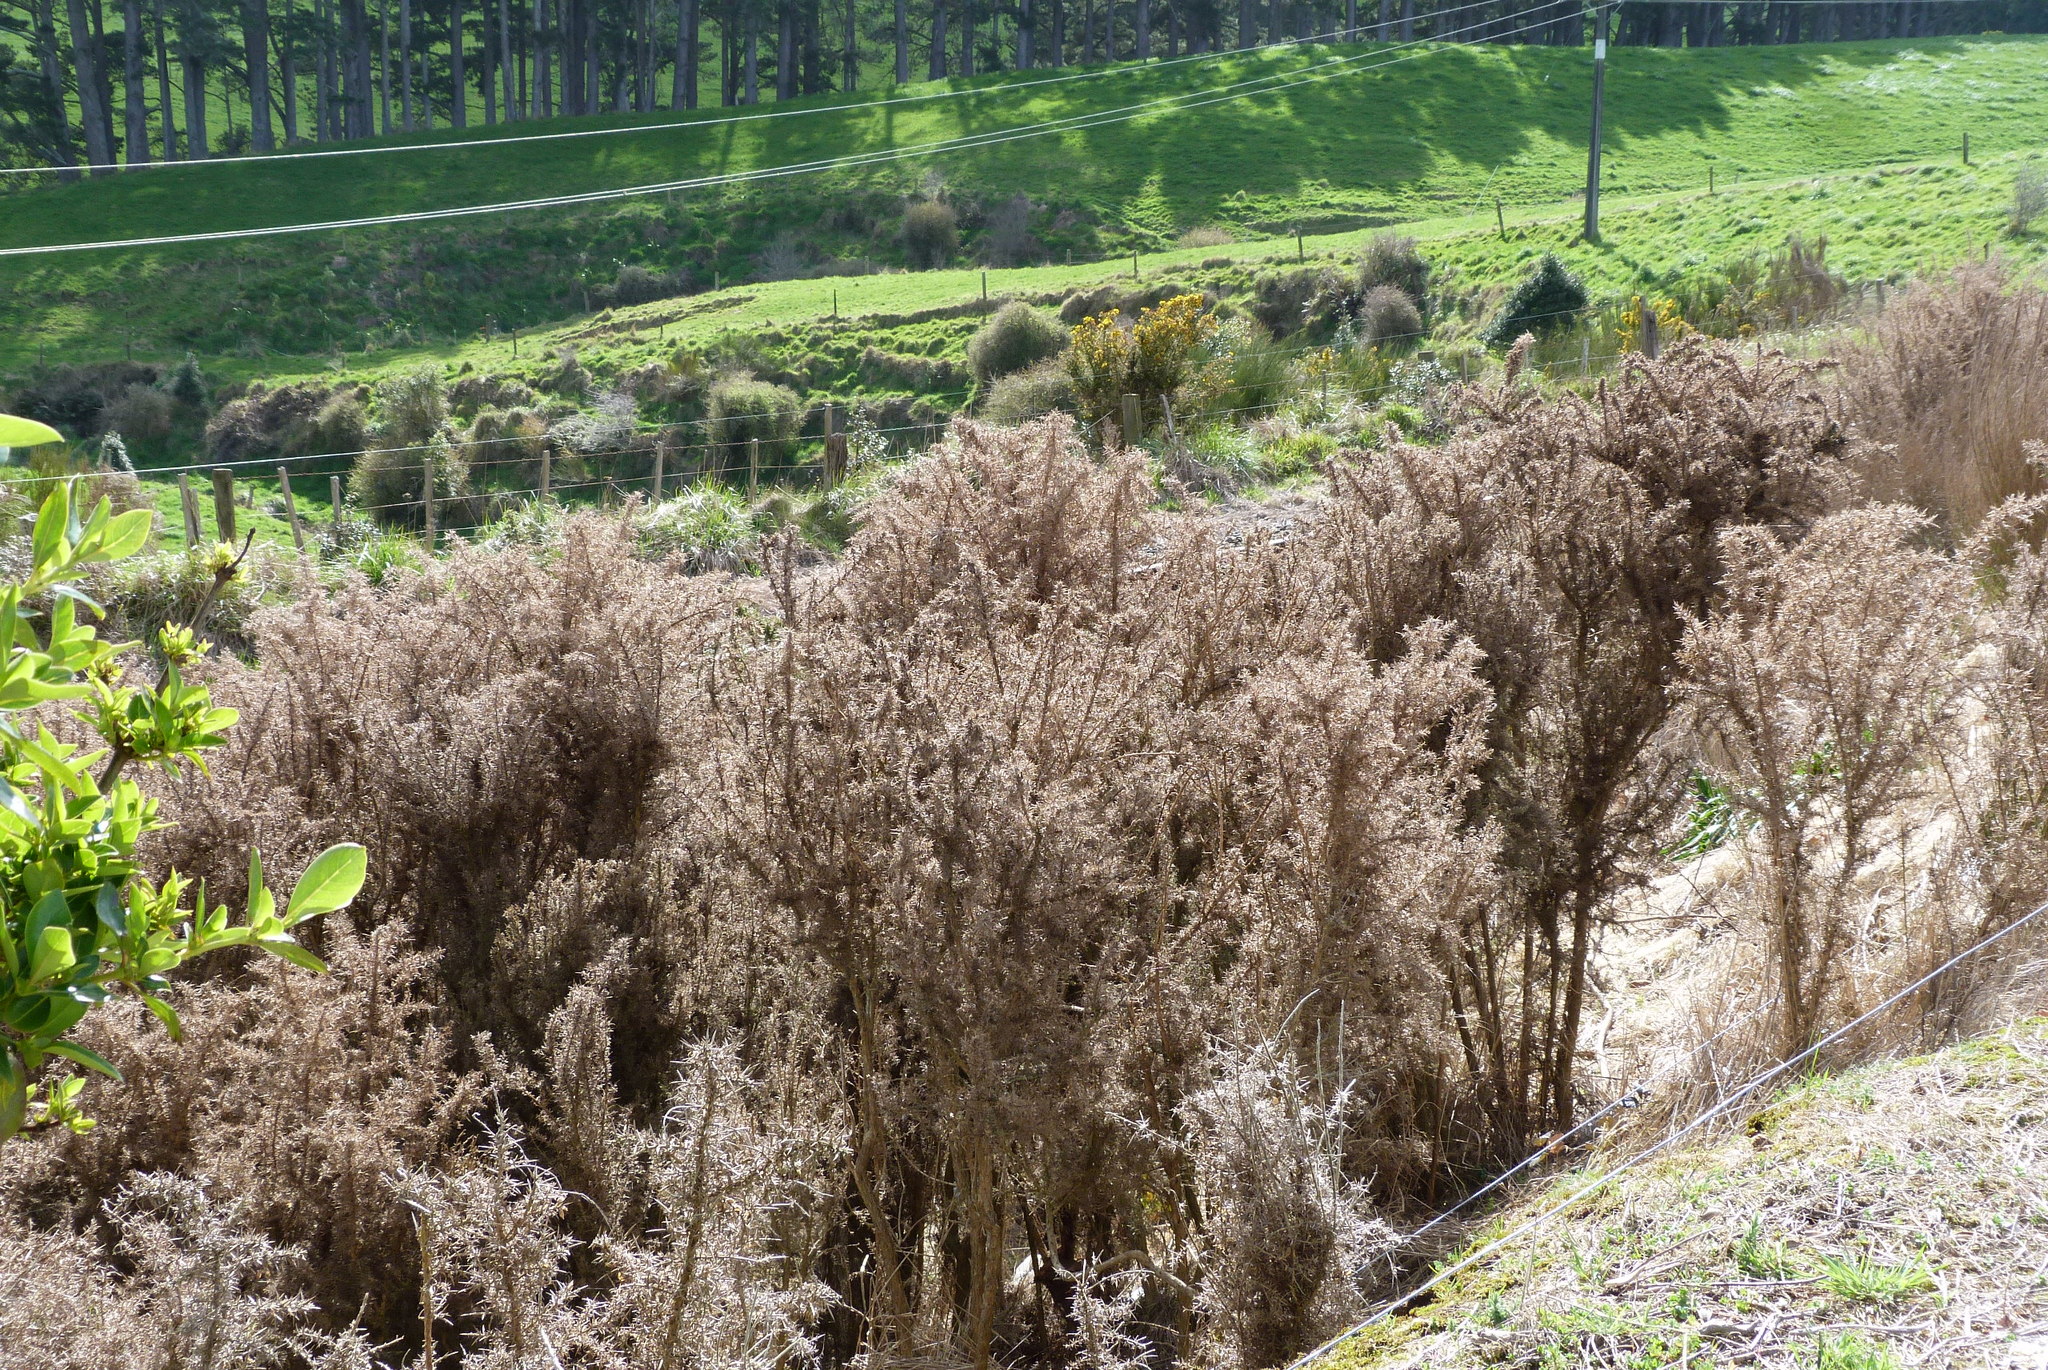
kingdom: Plantae
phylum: Tracheophyta
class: Magnoliopsida
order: Fabales
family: Fabaceae
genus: Ulex
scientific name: Ulex europaeus
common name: Common gorse
